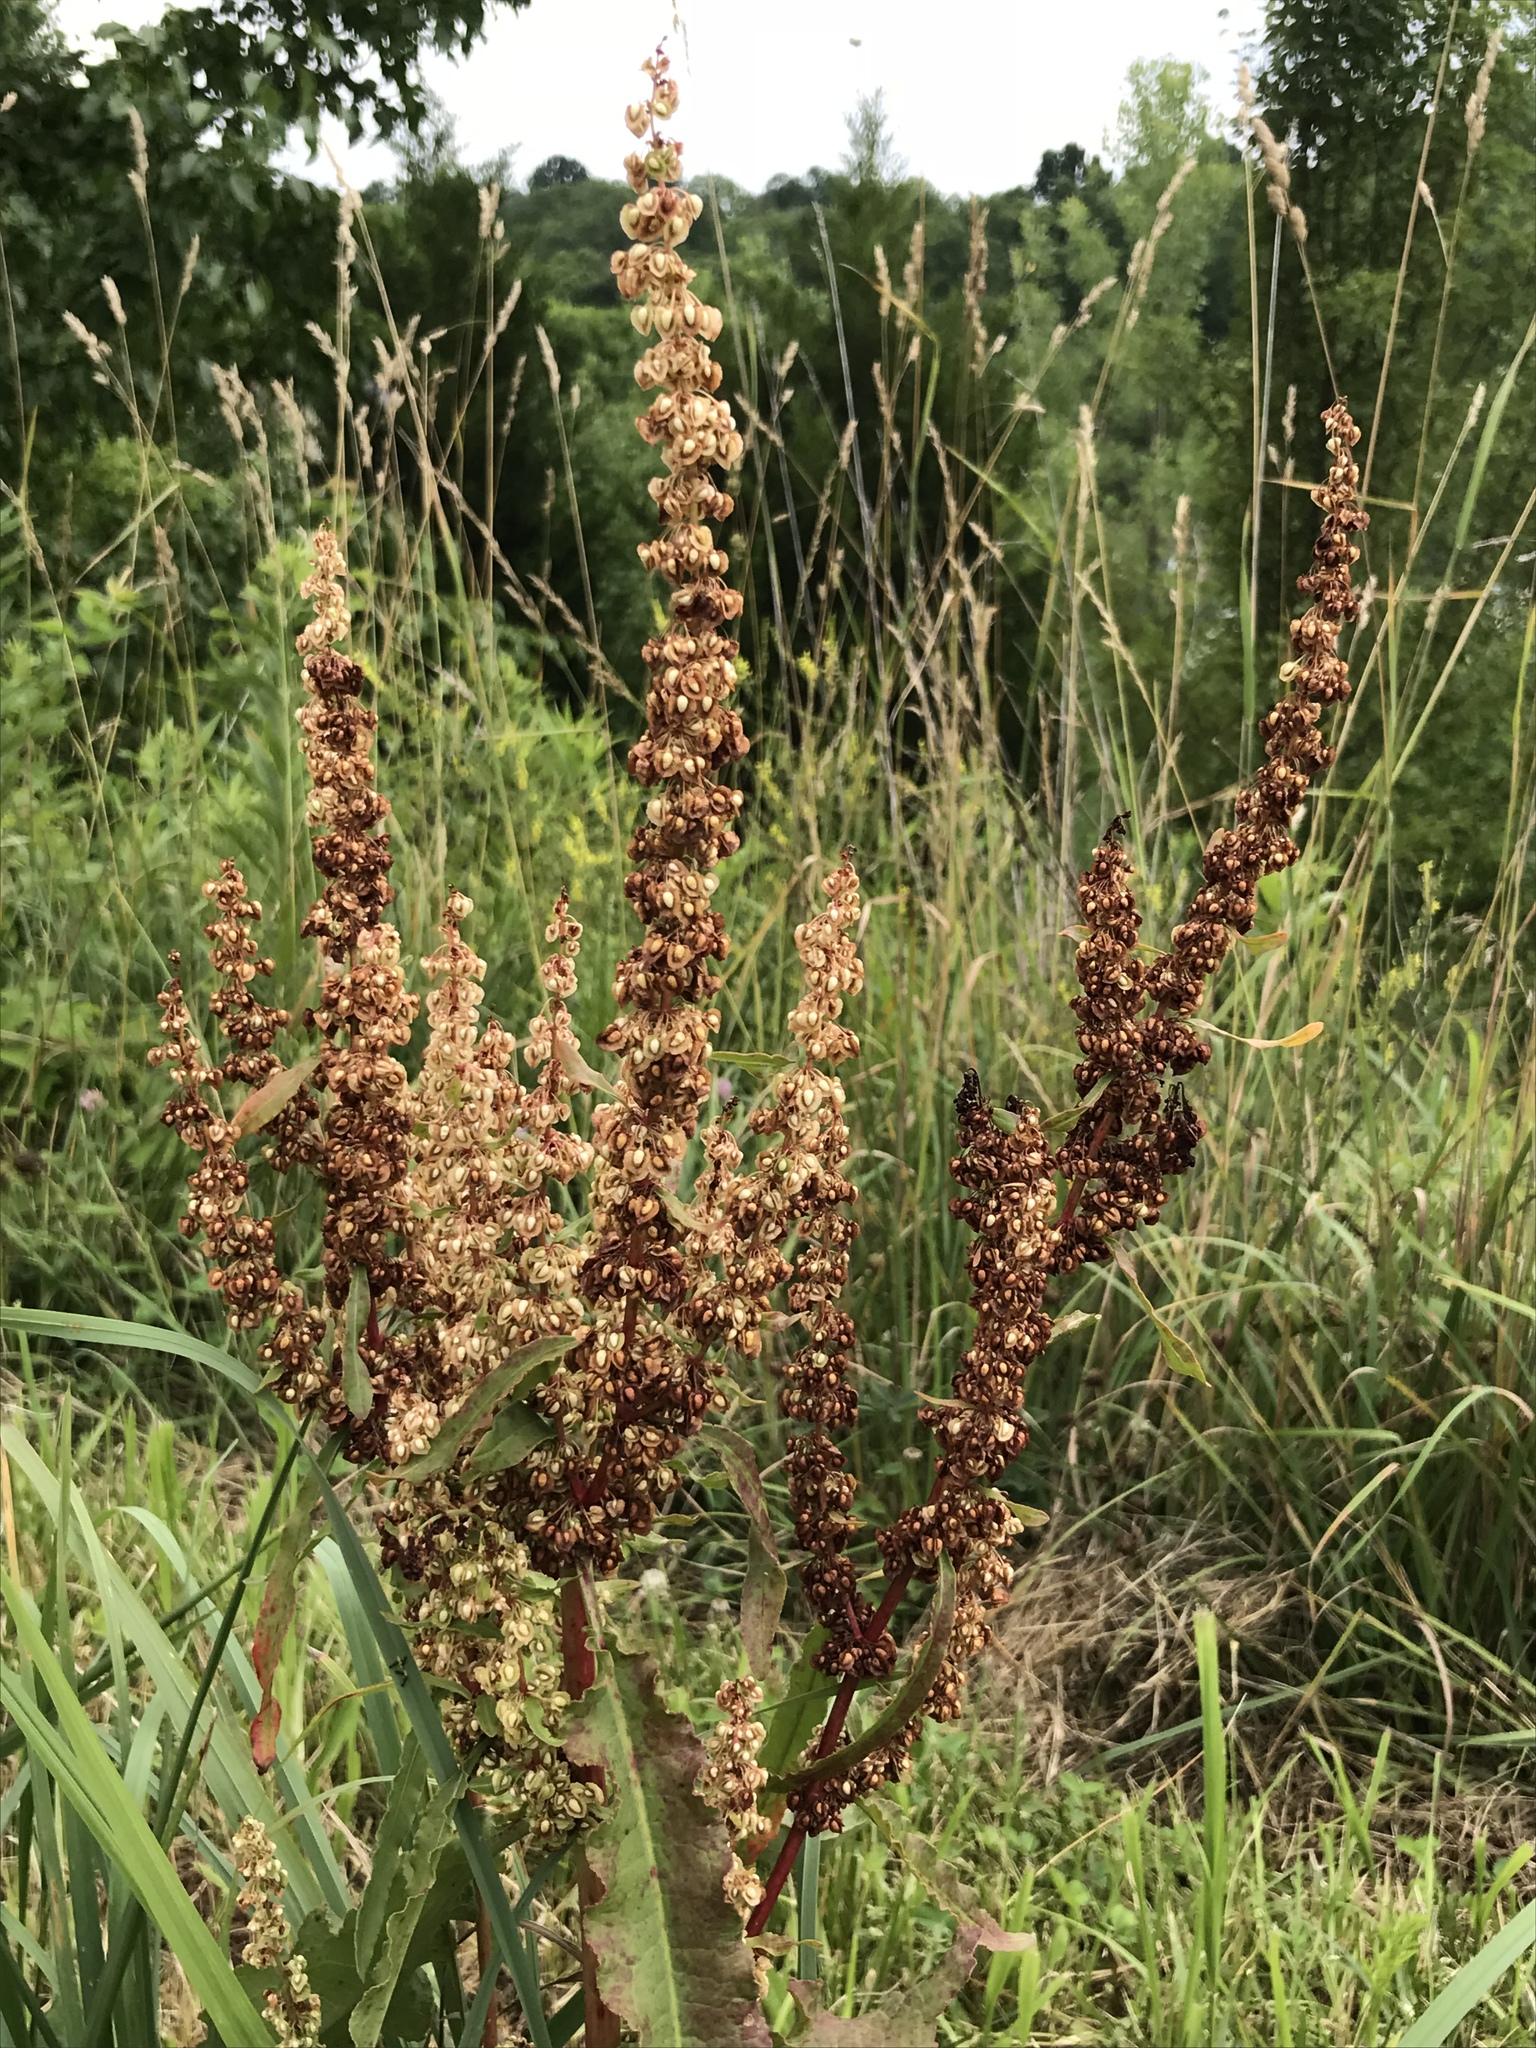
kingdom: Plantae
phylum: Tracheophyta
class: Magnoliopsida
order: Caryophyllales
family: Polygonaceae
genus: Rumex
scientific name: Rumex crispus
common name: Curled dock
